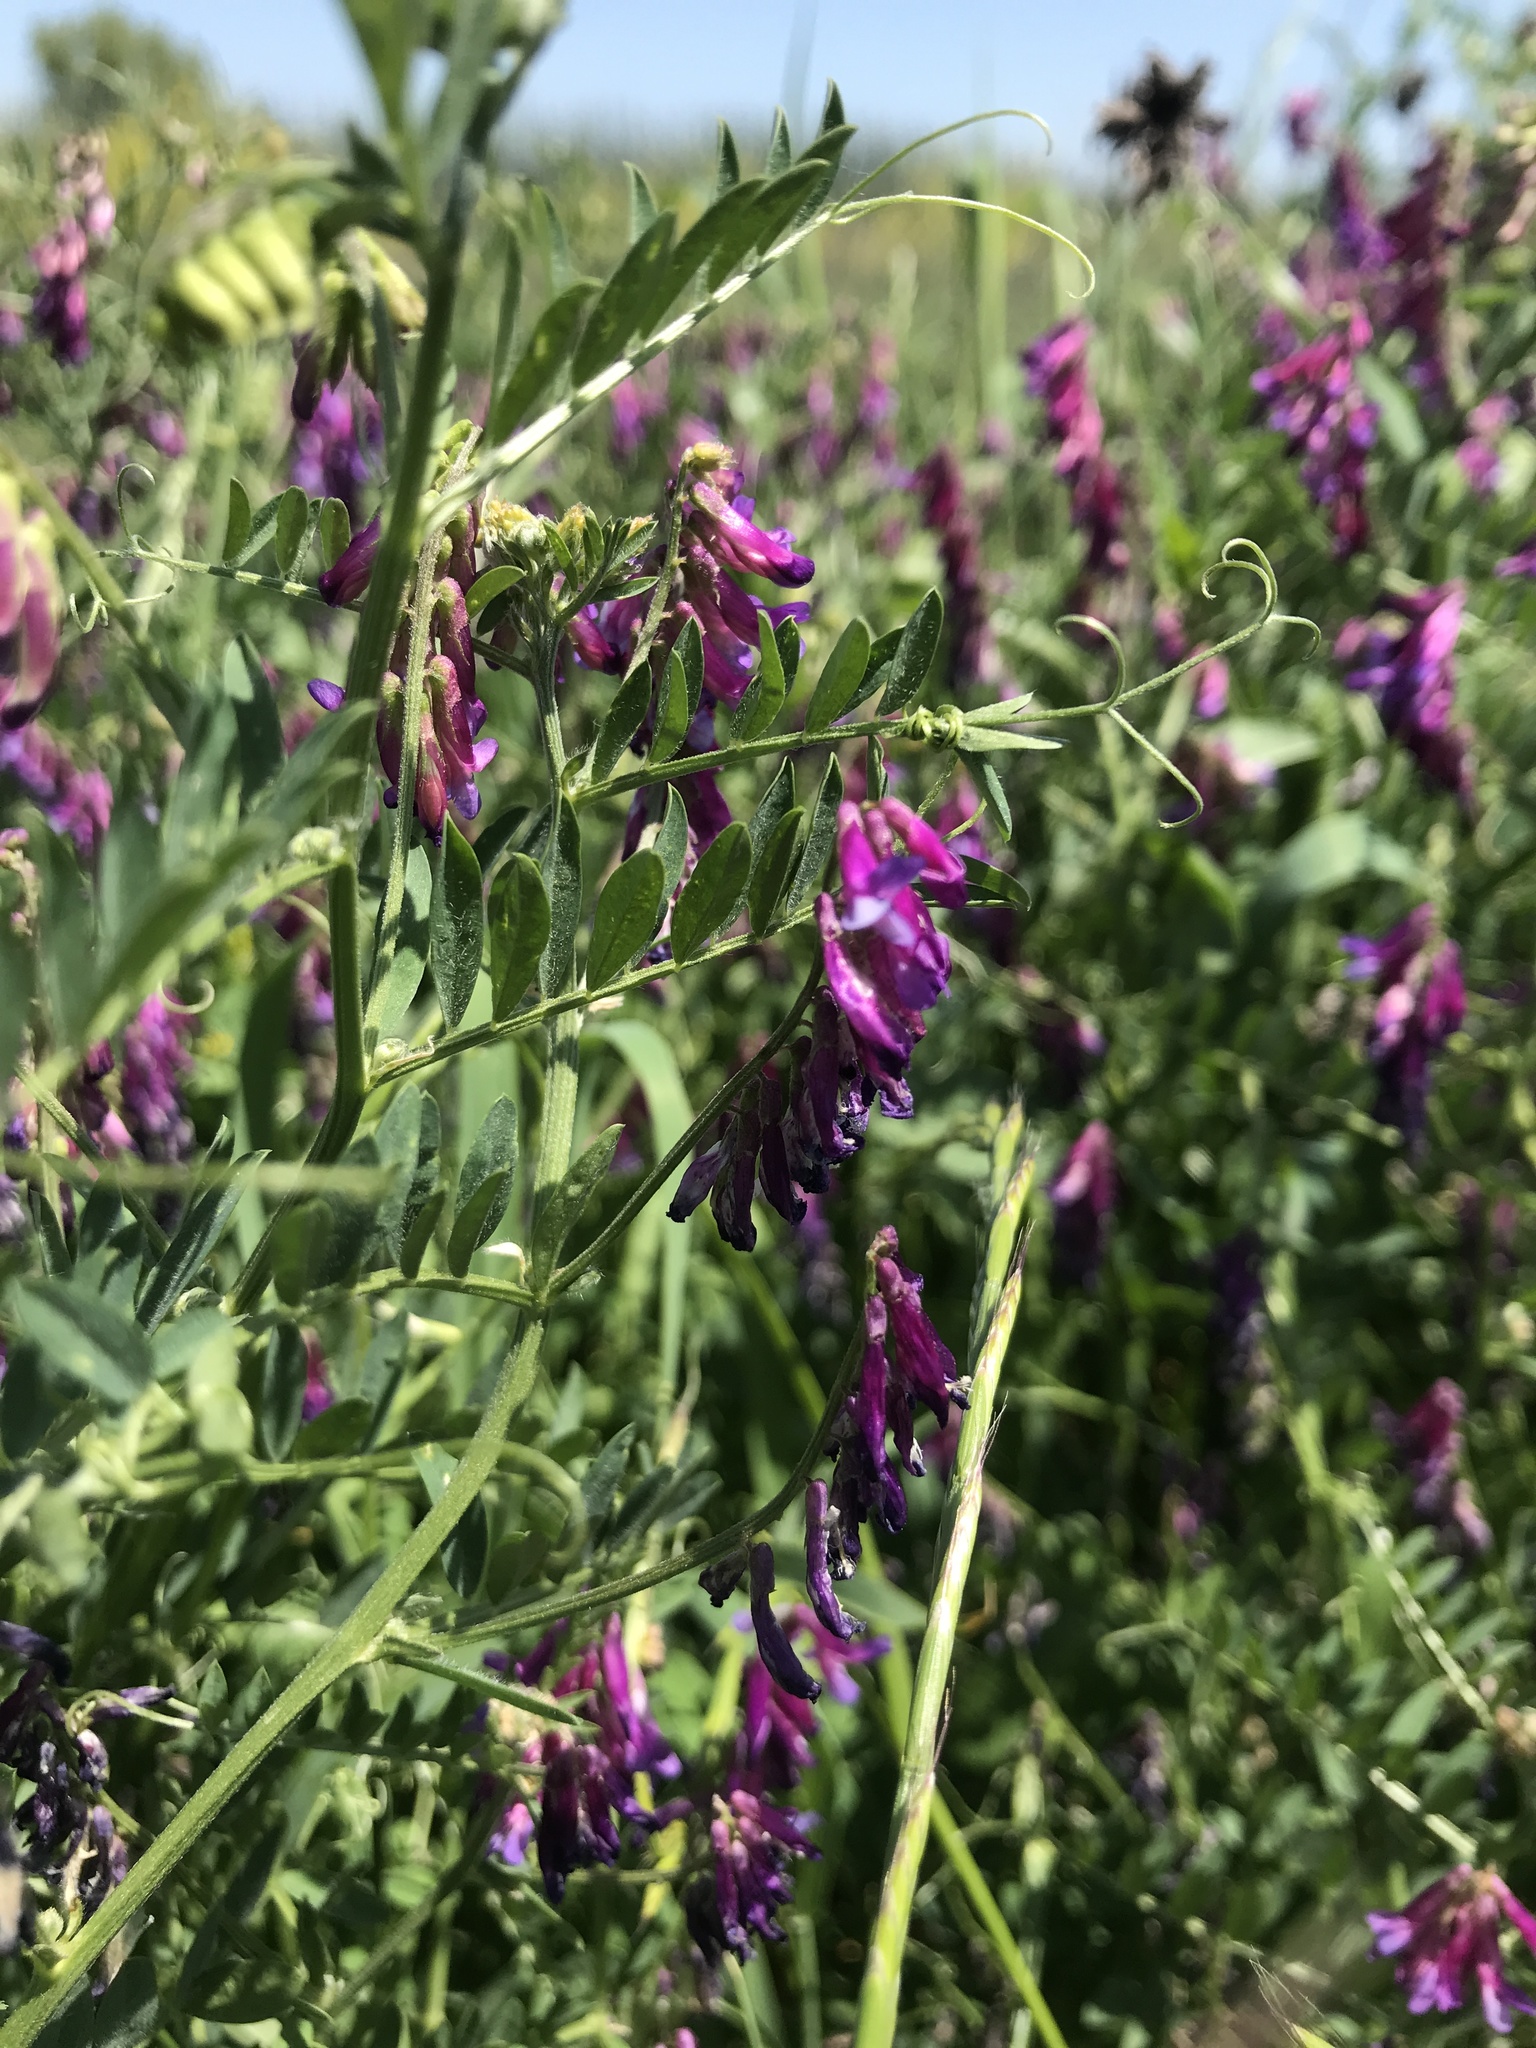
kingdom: Plantae
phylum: Tracheophyta
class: Magnoliopsida
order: Fabales
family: Fabaceae
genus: Vicia
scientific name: Vicia villosa
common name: Fodder vetch
